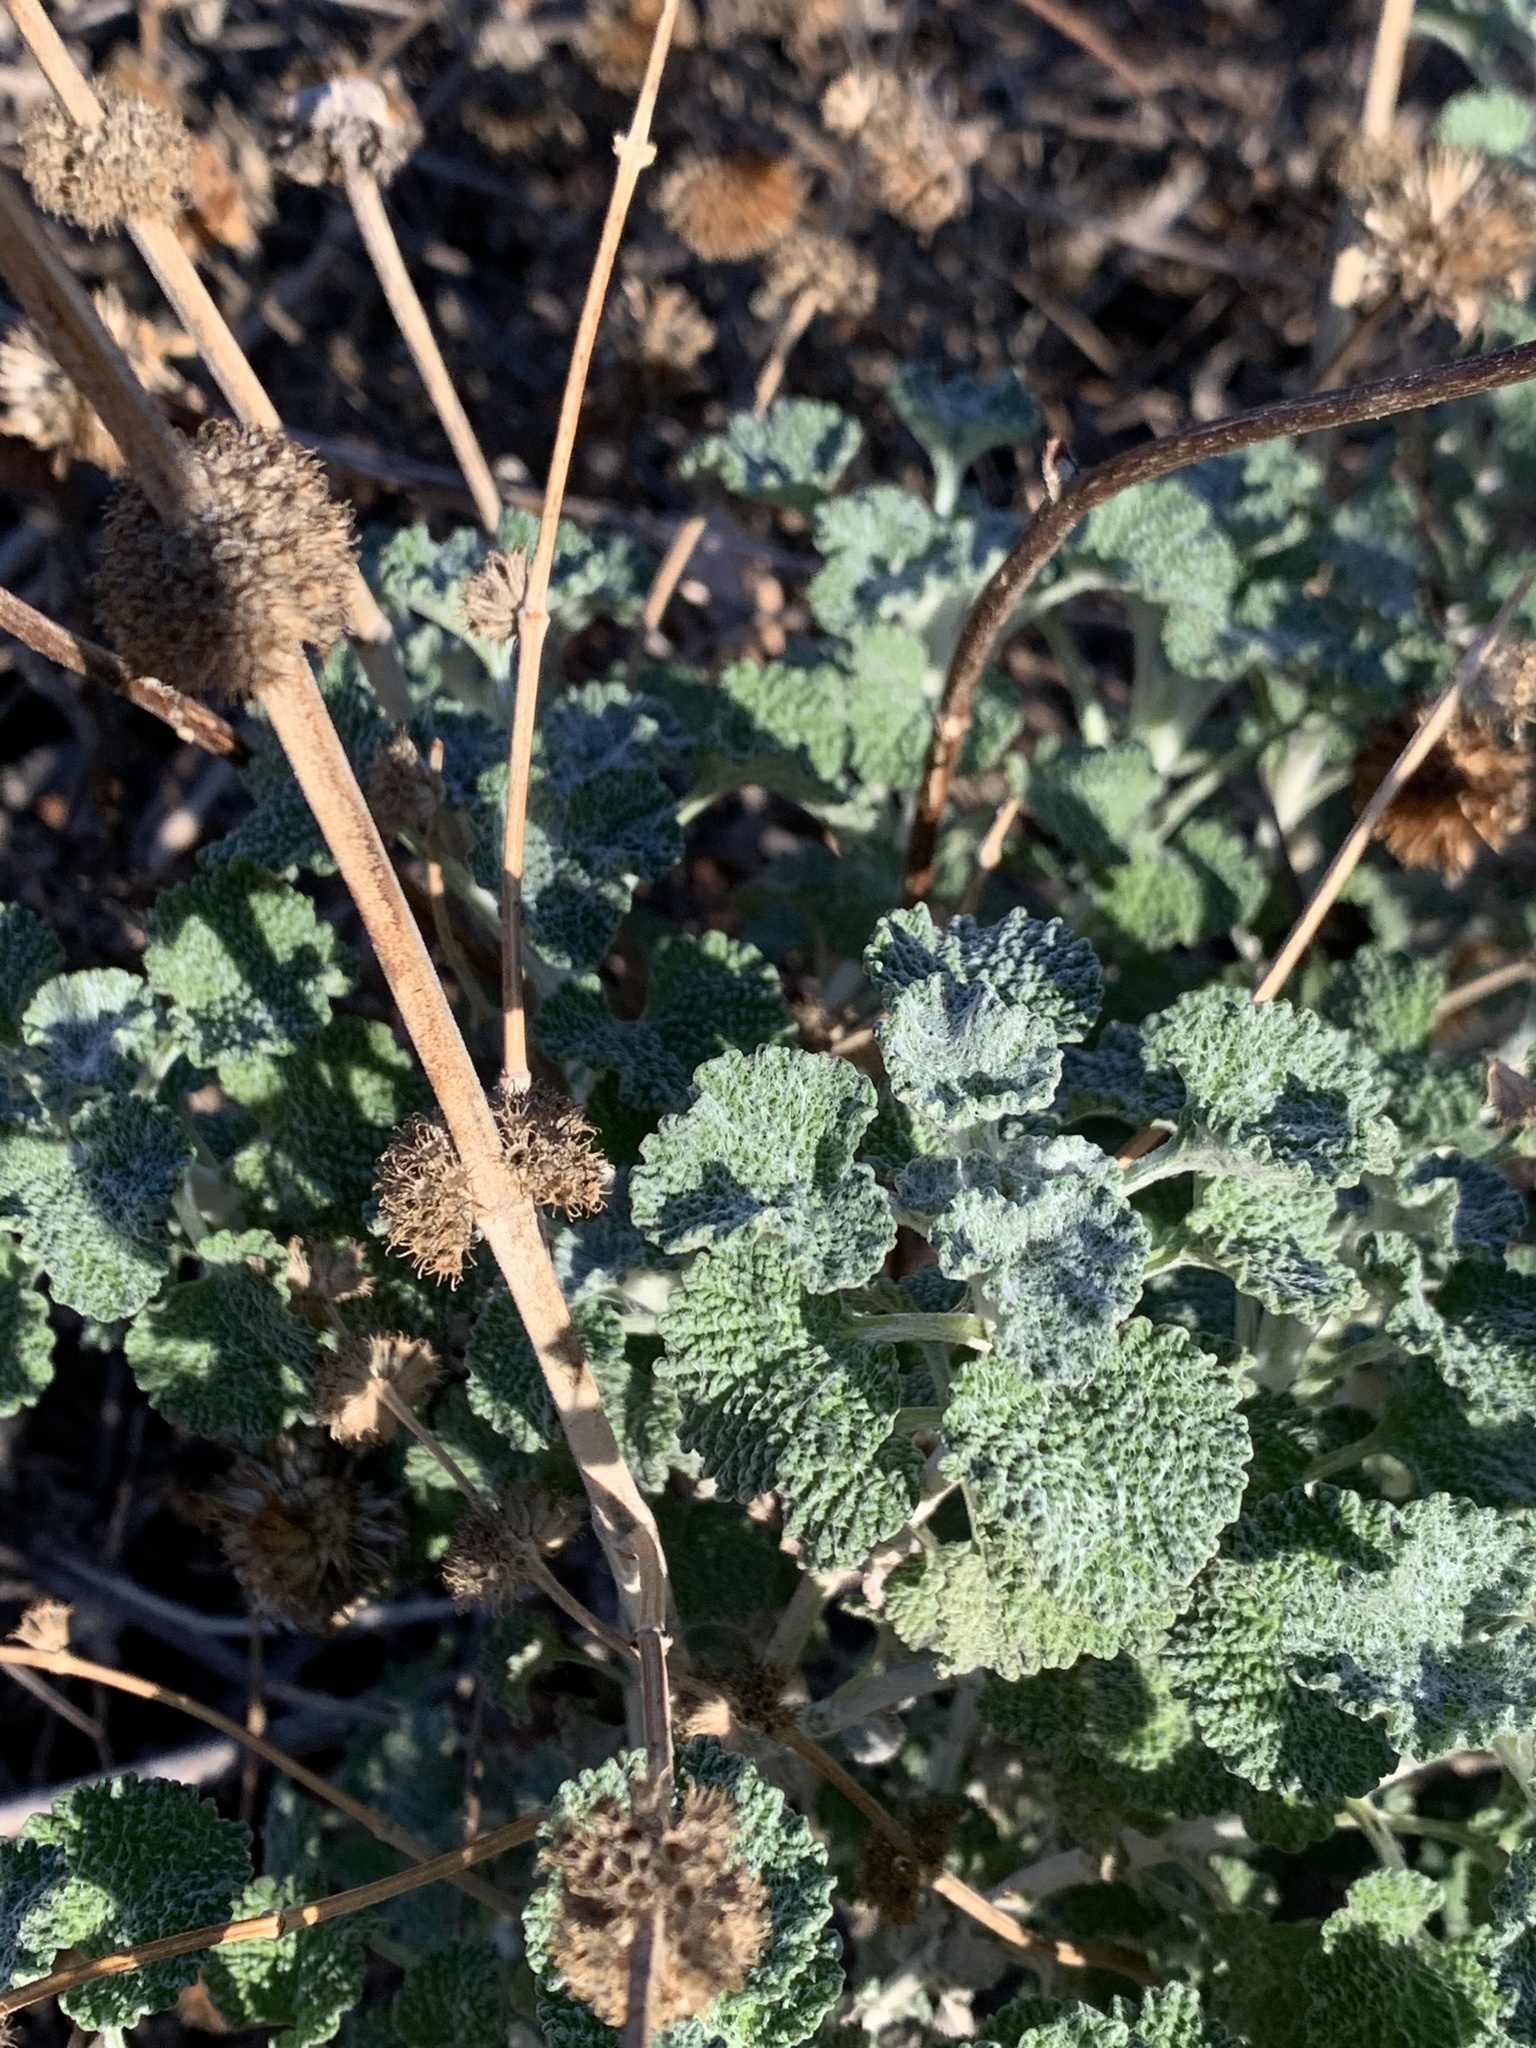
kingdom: Plantae
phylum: Tracheophyta
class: Magnoliopsida
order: Lamiales
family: Lamiaceae
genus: Marrubium
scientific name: Marrubium vulgare
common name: Horehound
